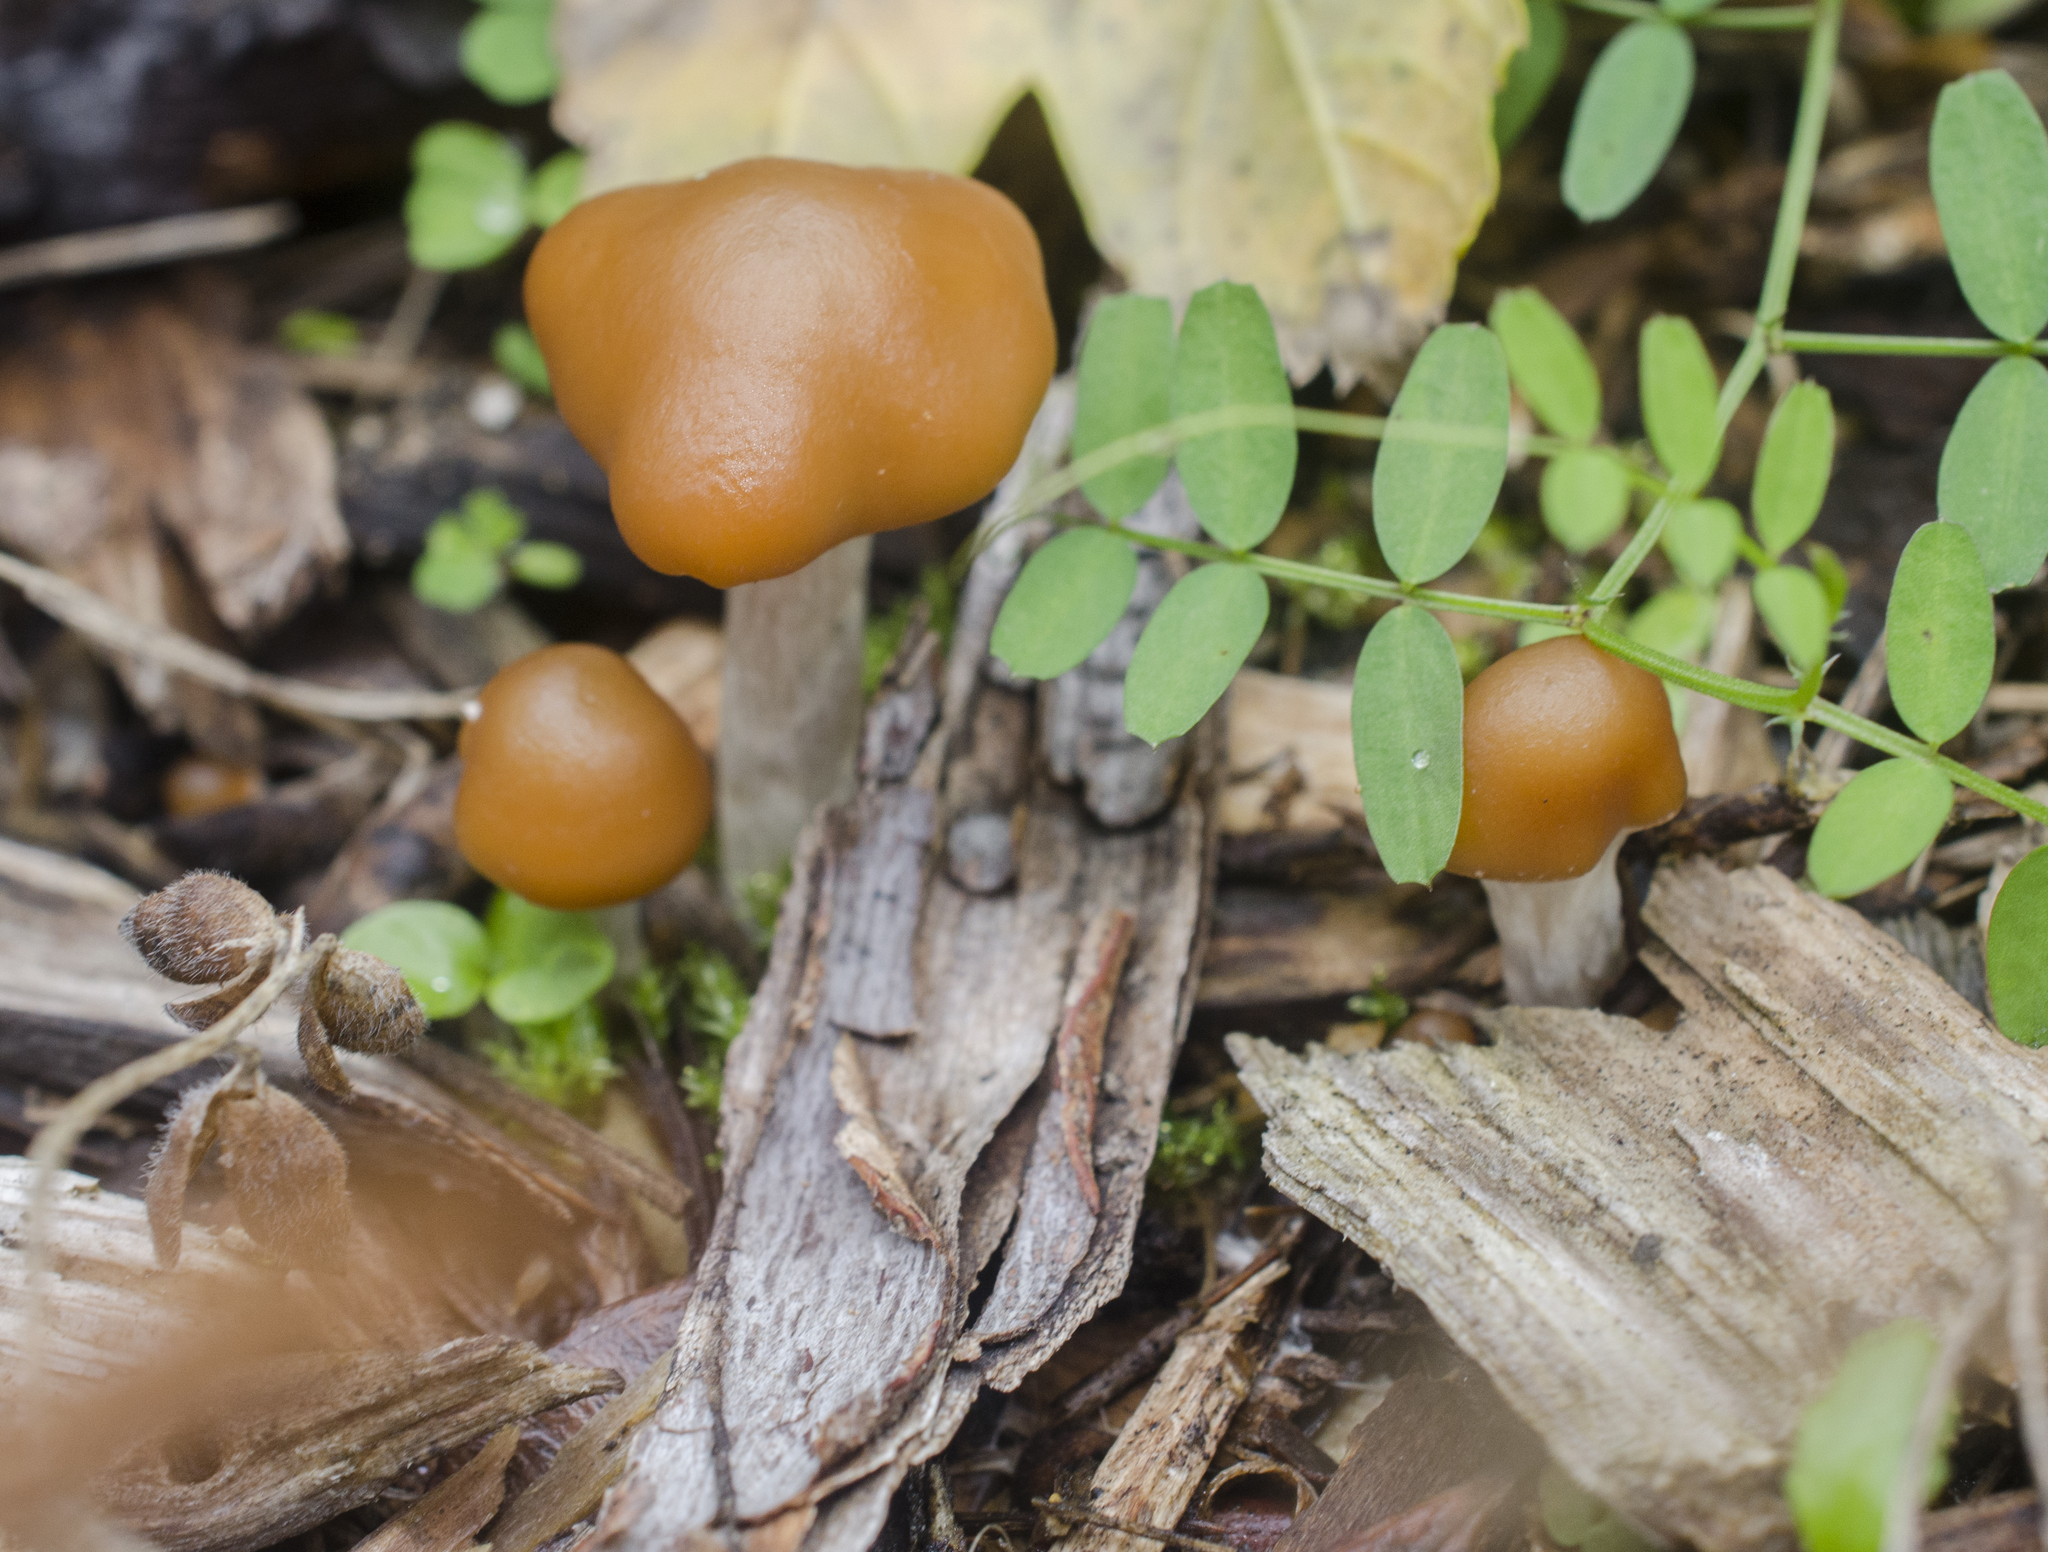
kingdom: Fungi
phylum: Basidiomycota
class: Agaricomycetes
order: Agaricales
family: Hymenogastraceae
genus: Psilocybe
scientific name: Psilocybe cyanescens
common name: Blueleg brownie
